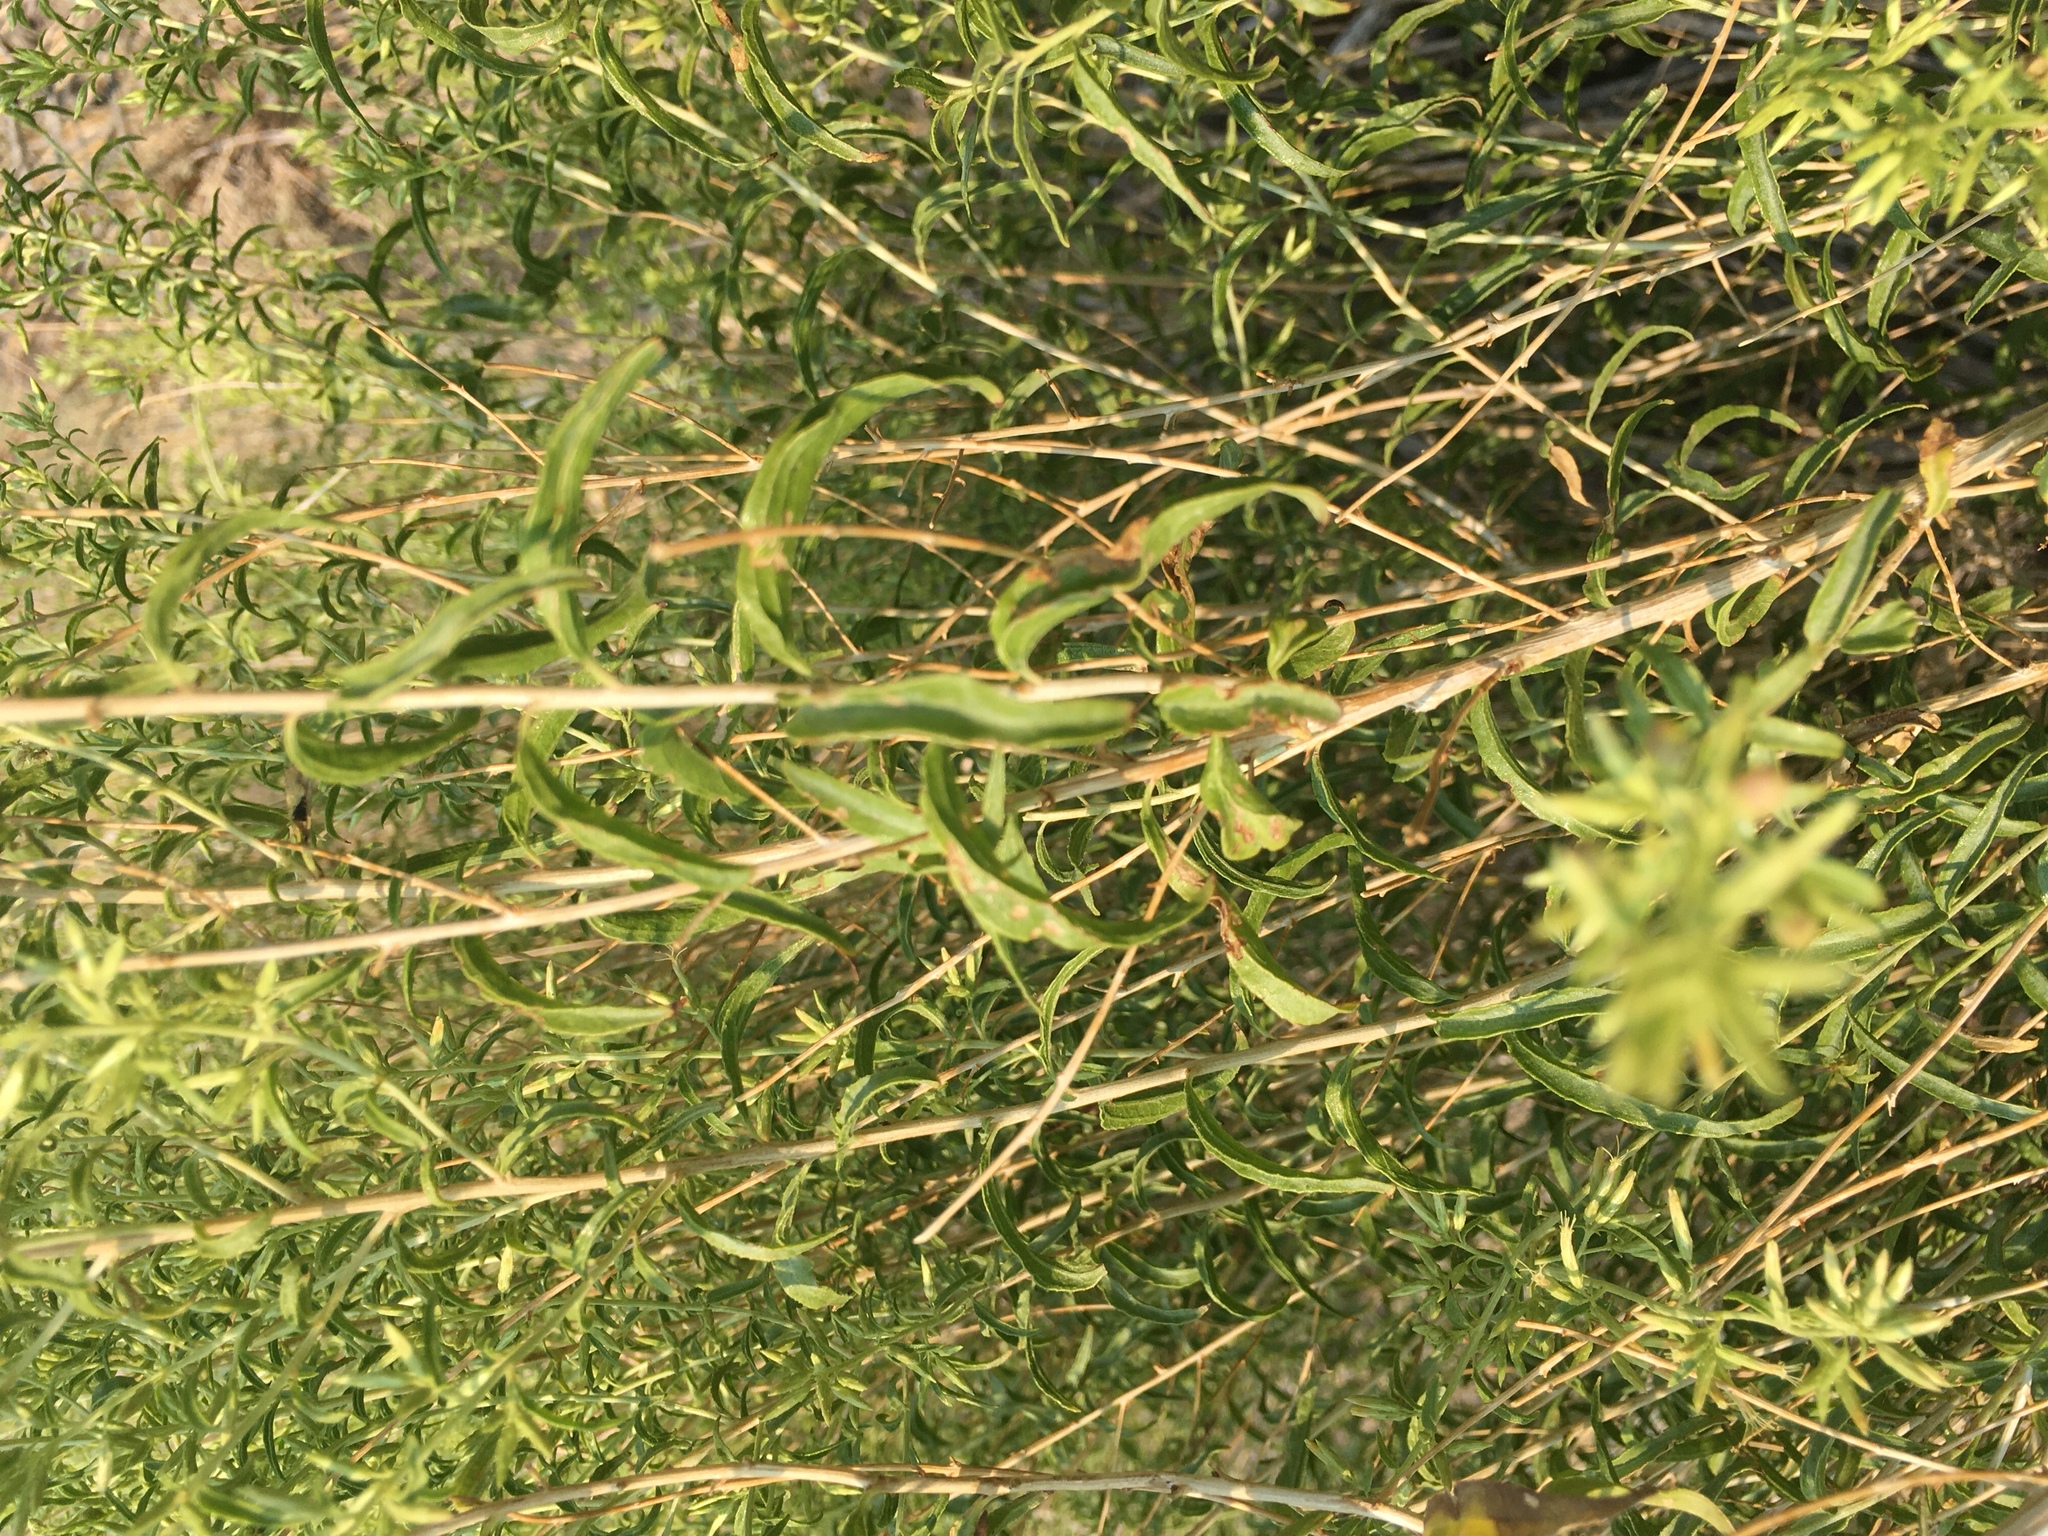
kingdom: Plantae
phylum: Tracheophyta
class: Magnoliopsida
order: Asterales
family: Asteraceae
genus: Brickellia
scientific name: Brickellia longifolia
